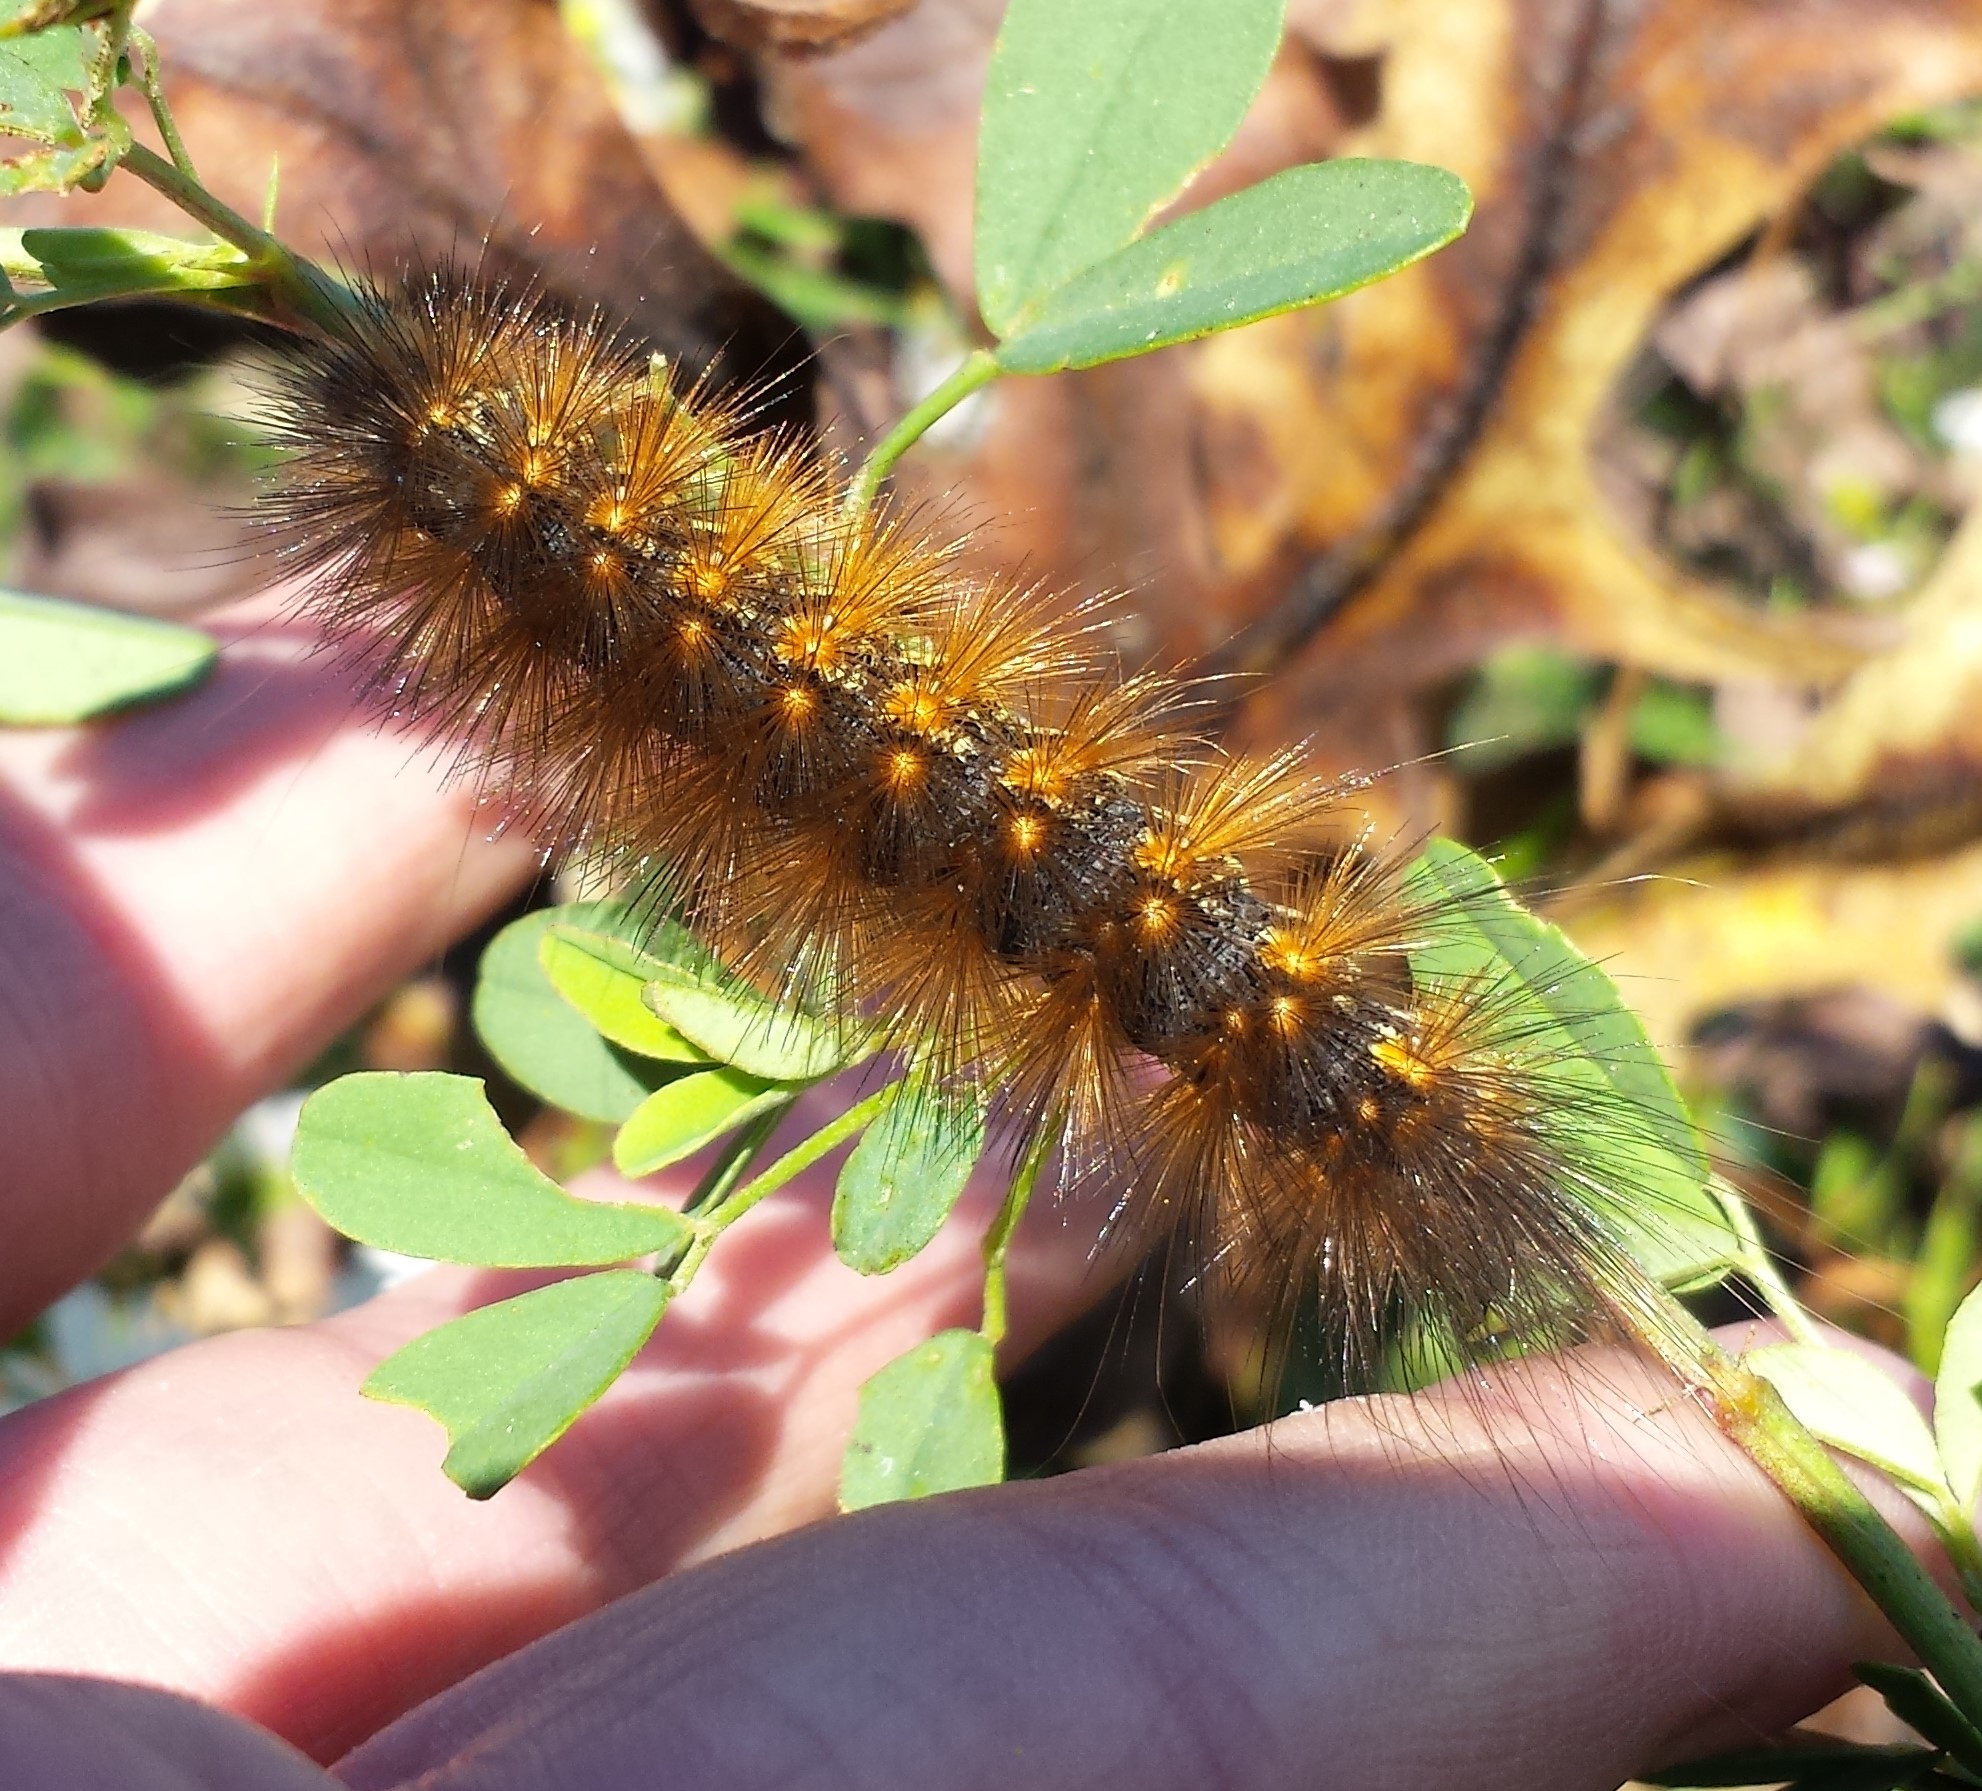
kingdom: Animalia
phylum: Arthropoda
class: Insecta
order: Lepidoptera
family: Erebidae
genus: Estigmene
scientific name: Estigmene acrea
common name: Salt marsh moth
